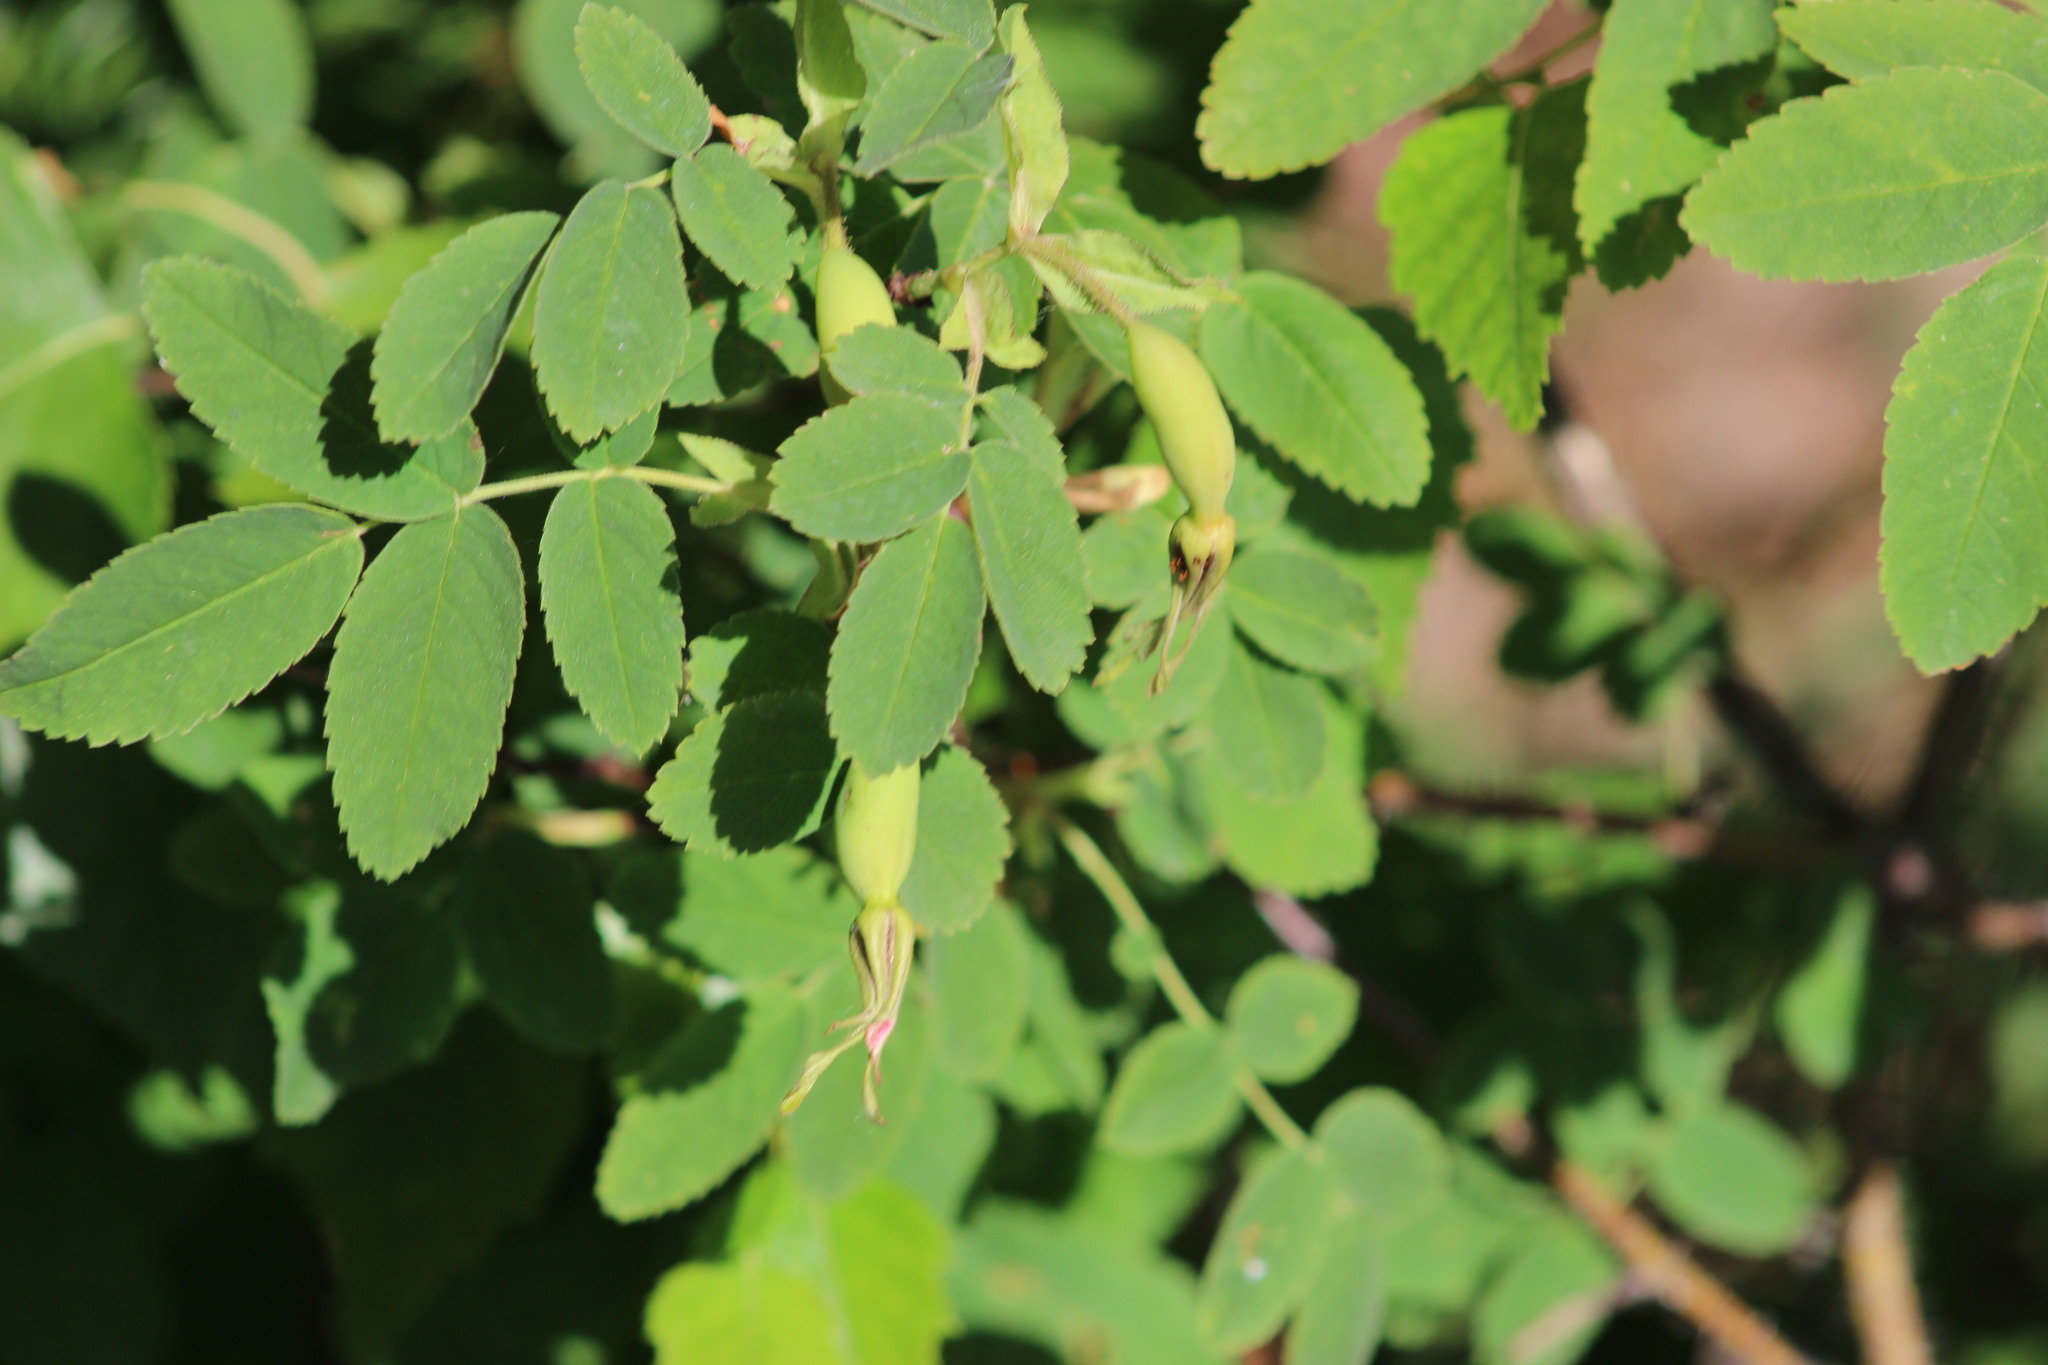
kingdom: Plantae
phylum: Tracheophyta
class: Magnoliopsida
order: Rosales
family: Rosaceae
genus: Rosa
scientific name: Rosa acicularis
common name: Prickly rose
